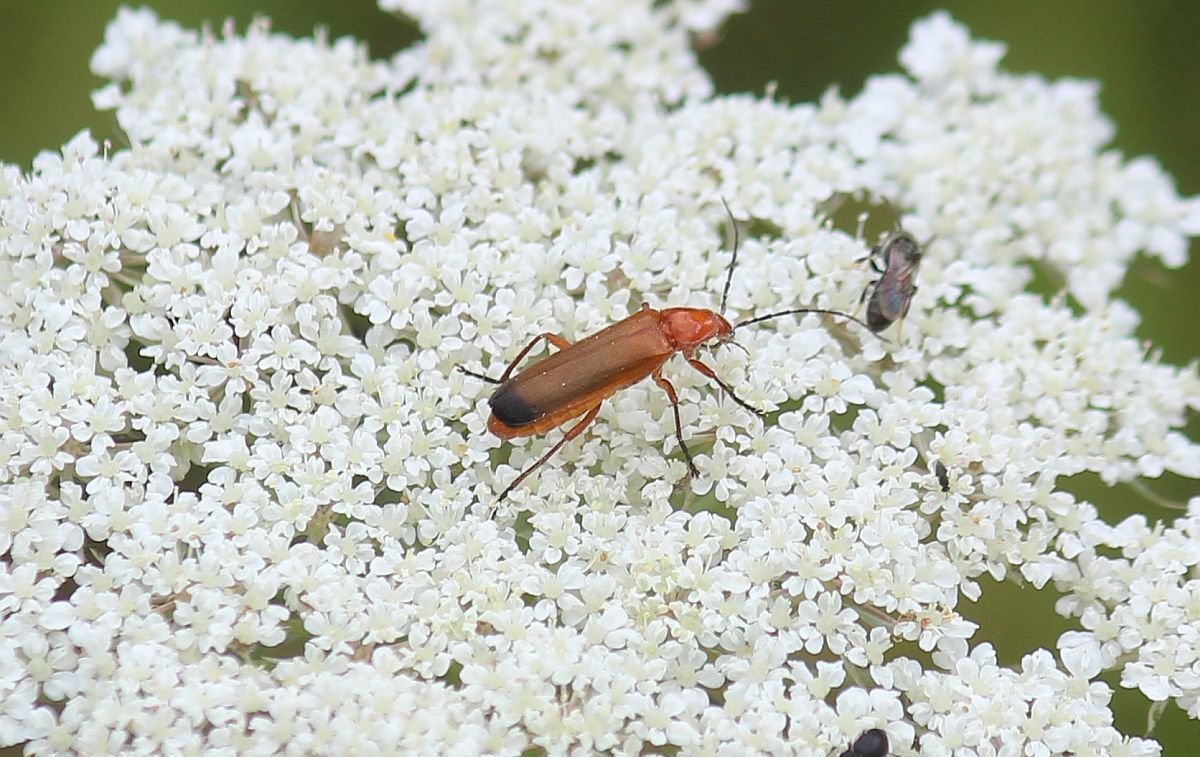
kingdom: Animalia
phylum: Arthropoda
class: Insecta
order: Coleoptera
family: Cantharidae
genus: Rhagonycha
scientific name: Rhagonycha fulva
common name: Common red soldier beetle
